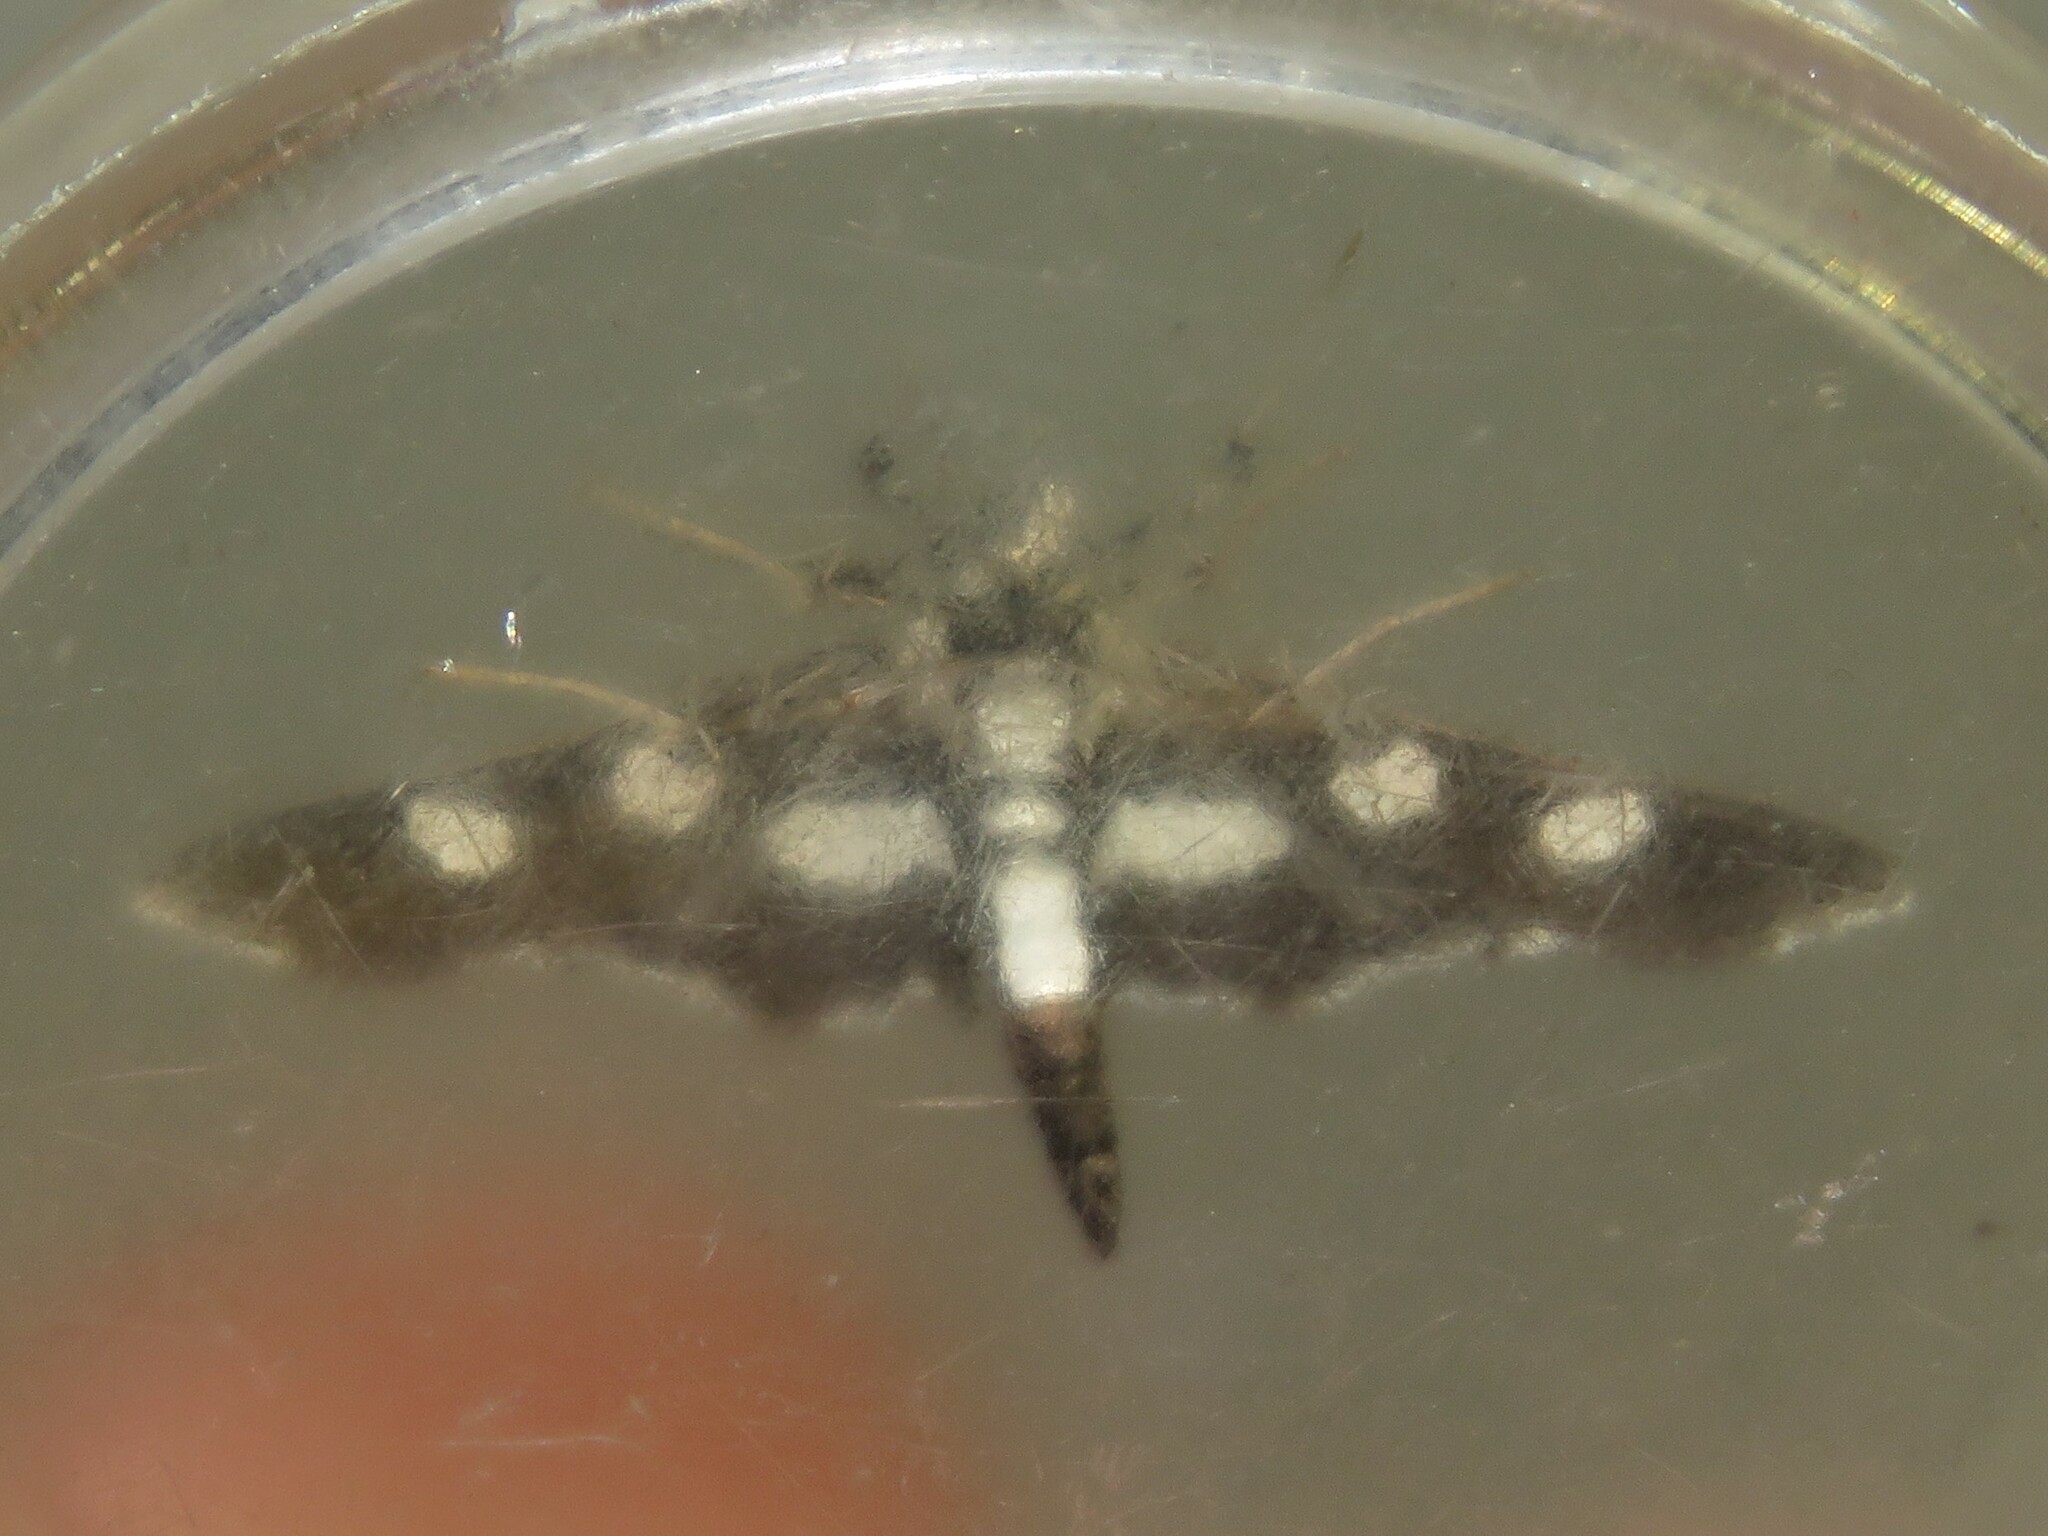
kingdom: Animalia
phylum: Arthropoda
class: Insecta
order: Lepidoptera
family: Crambidae
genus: Desmia
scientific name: Desmia funeralis
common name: Grape leaf folder moth
